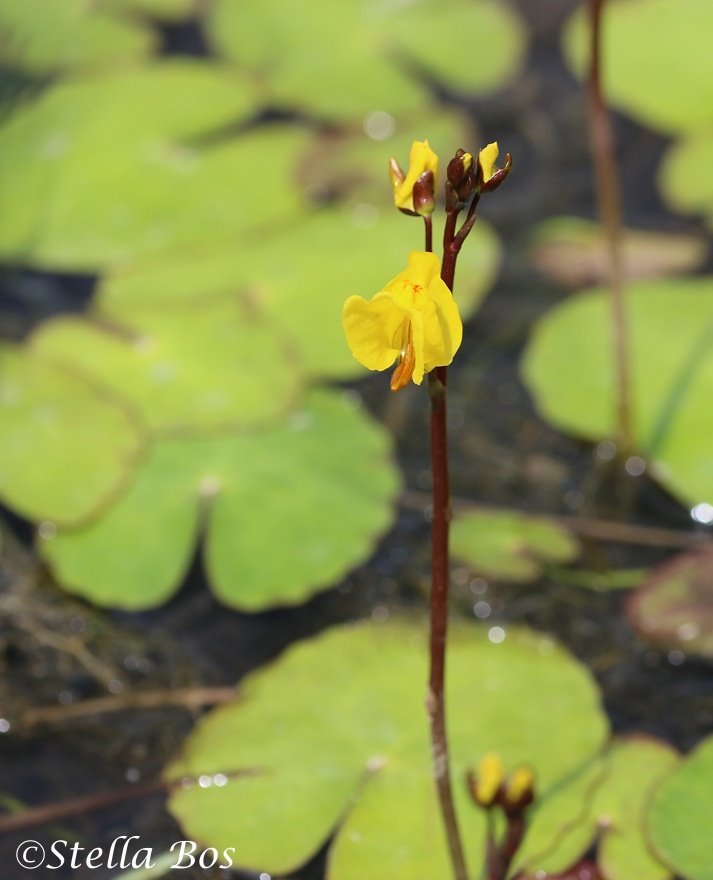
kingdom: Plantae
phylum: Tracheophyta
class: Magnoliopsida
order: Lamiales
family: Lentibulariaceae
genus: Utricularia
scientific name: Utricularia vulgaris
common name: Greater bladderwort
